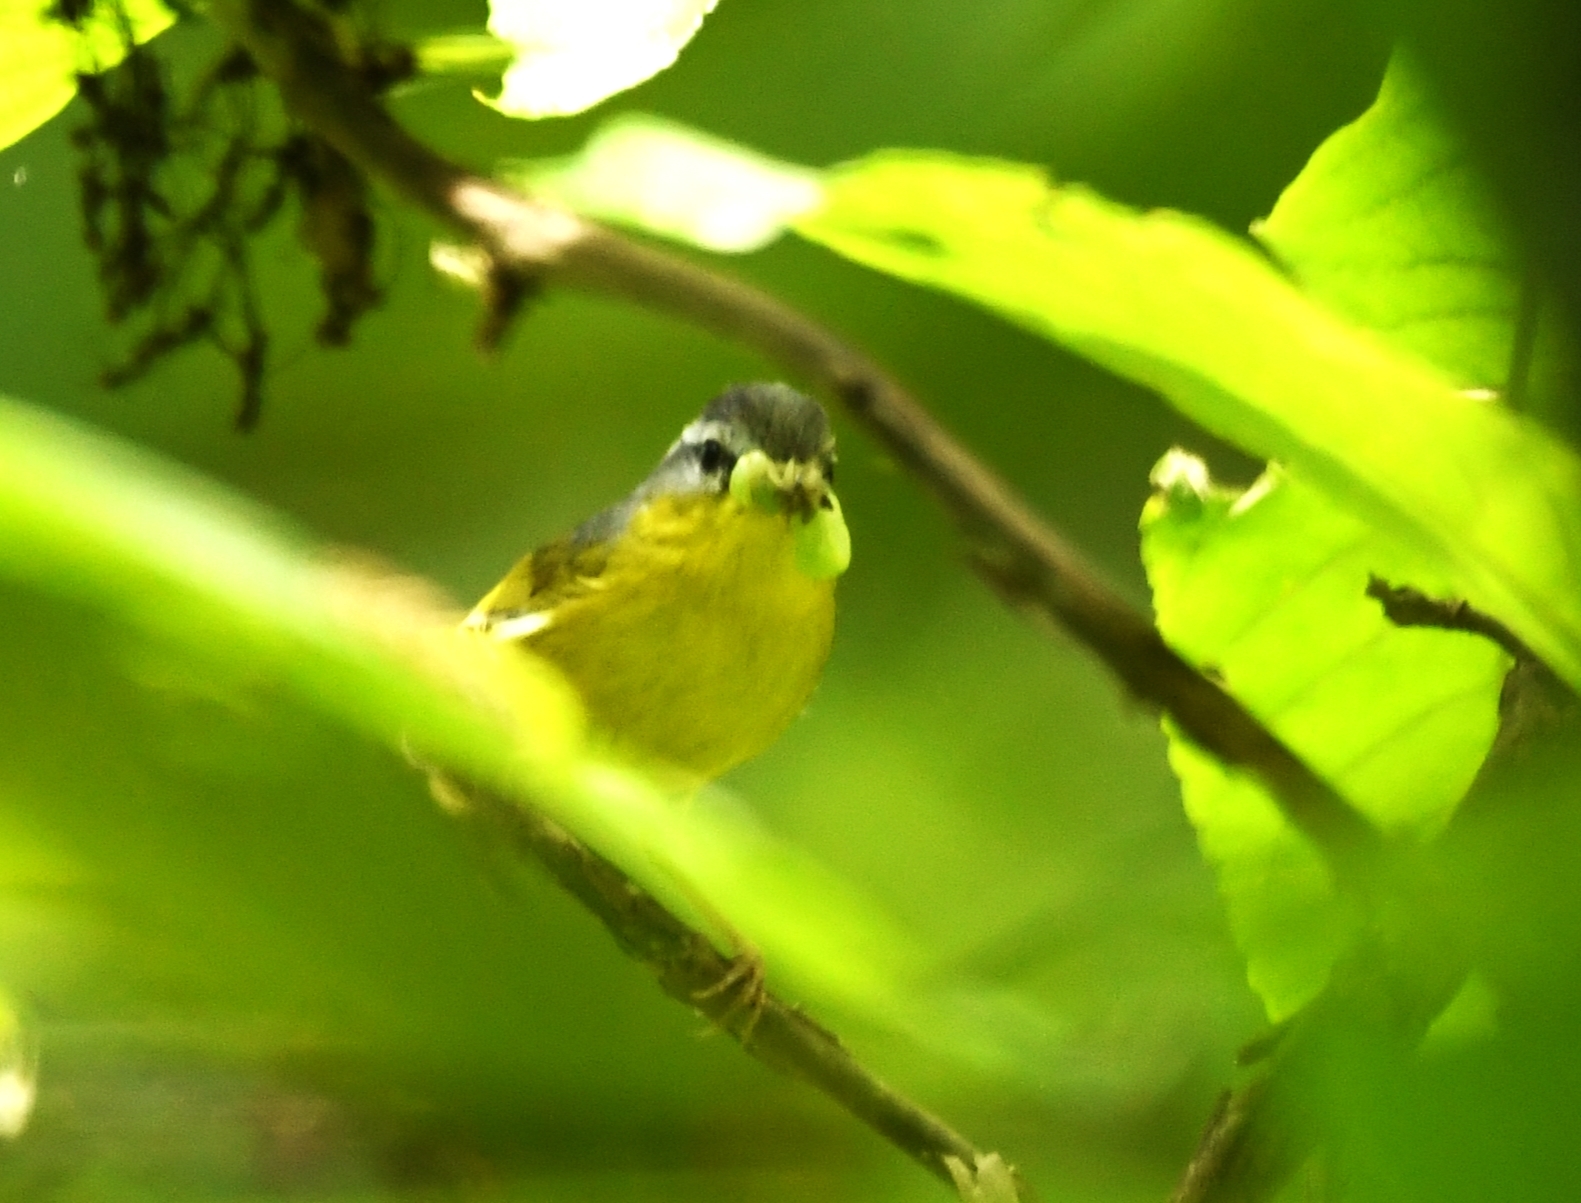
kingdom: Animalia
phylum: Chordata
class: Aves
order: Passeriformes
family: Phylloscopidae
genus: Phylloscopus
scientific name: Phylloscopus xanthoschistos
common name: Grey-hooded warbler
